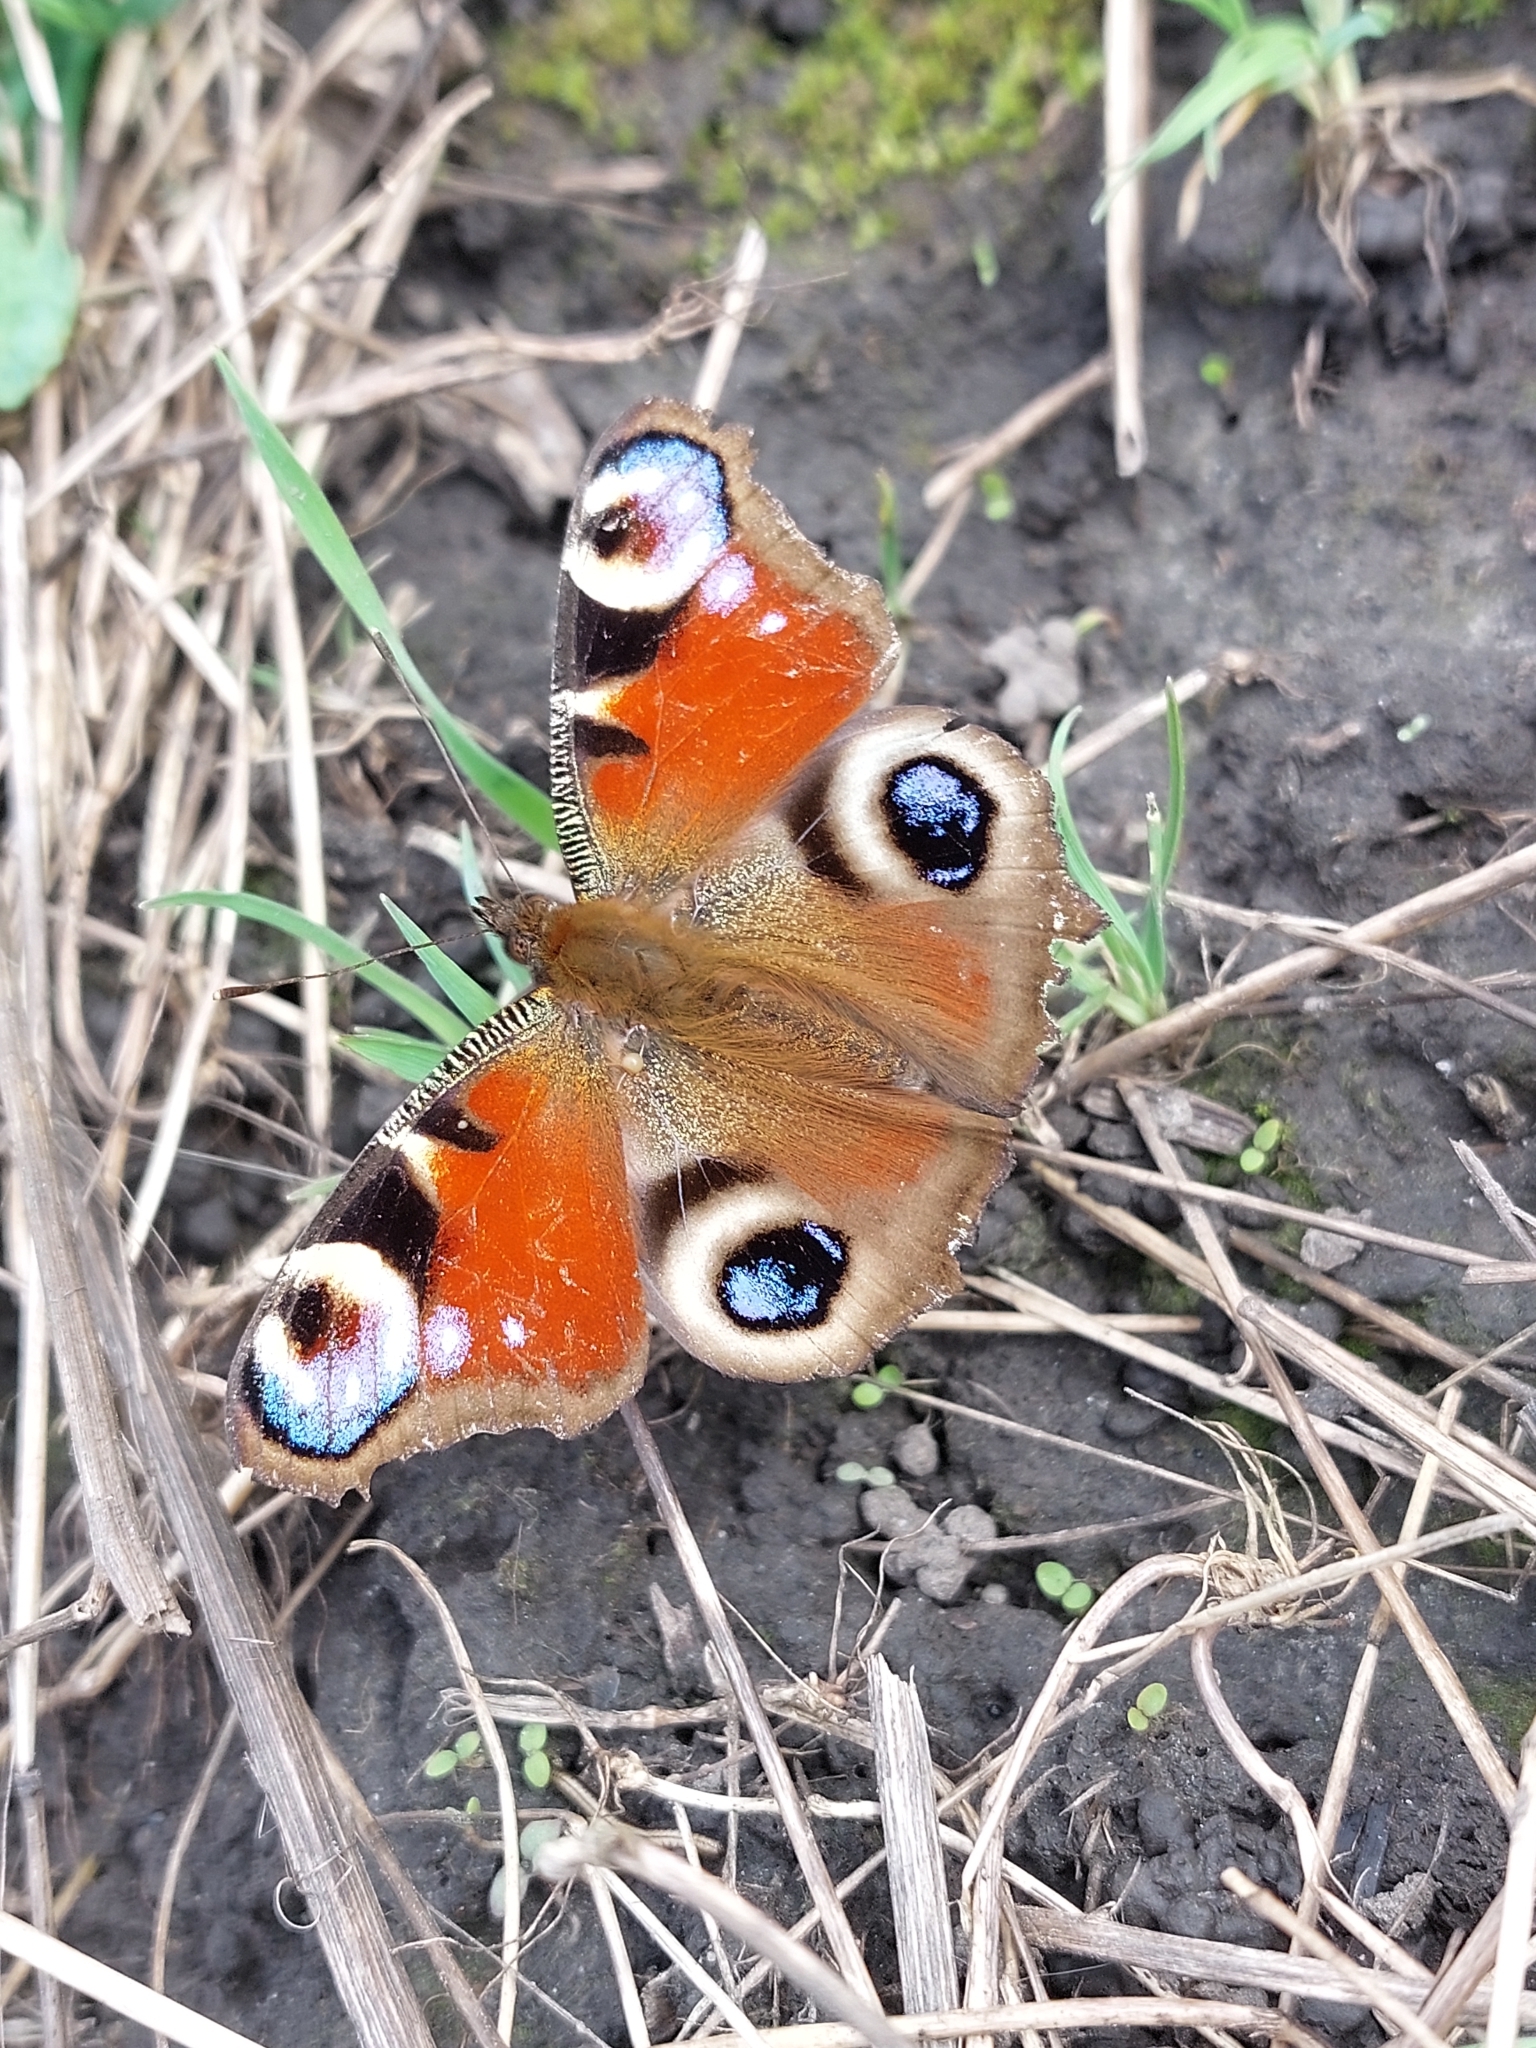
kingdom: Animalia
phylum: Arthropoda
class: Insecta
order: Lepidoptera
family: Nymphalidae
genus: Aglais
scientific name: Aglais io
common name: Peacock
